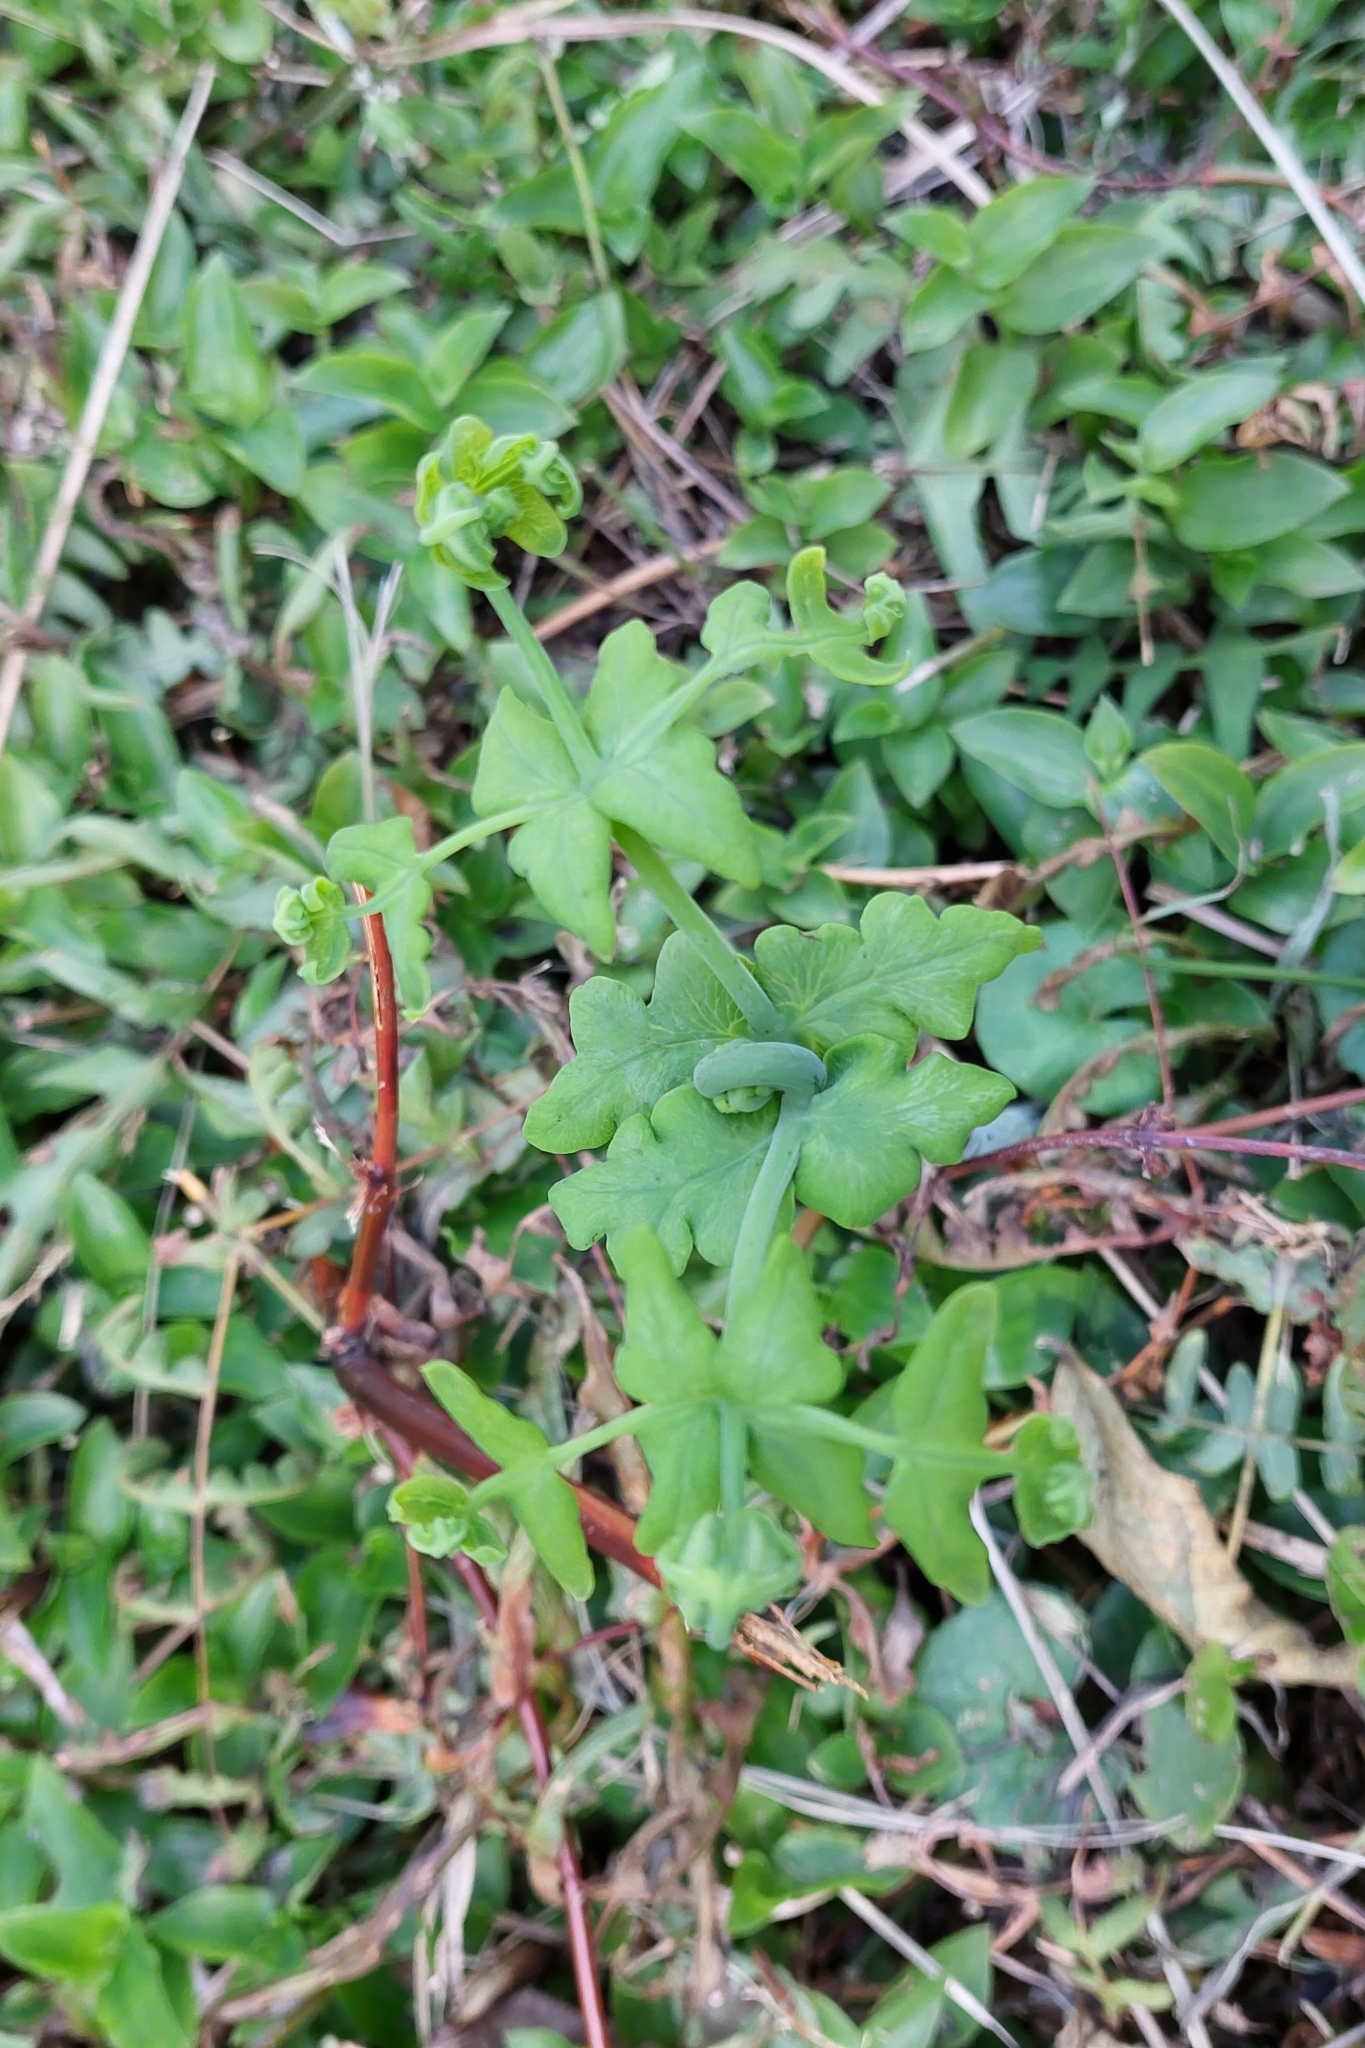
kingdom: Plantae
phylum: Tracheophyta
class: Polypodiopsida
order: Polypodiales
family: Dennstaedtiaceae
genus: Histiopteris
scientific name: Histiopteris incisa
